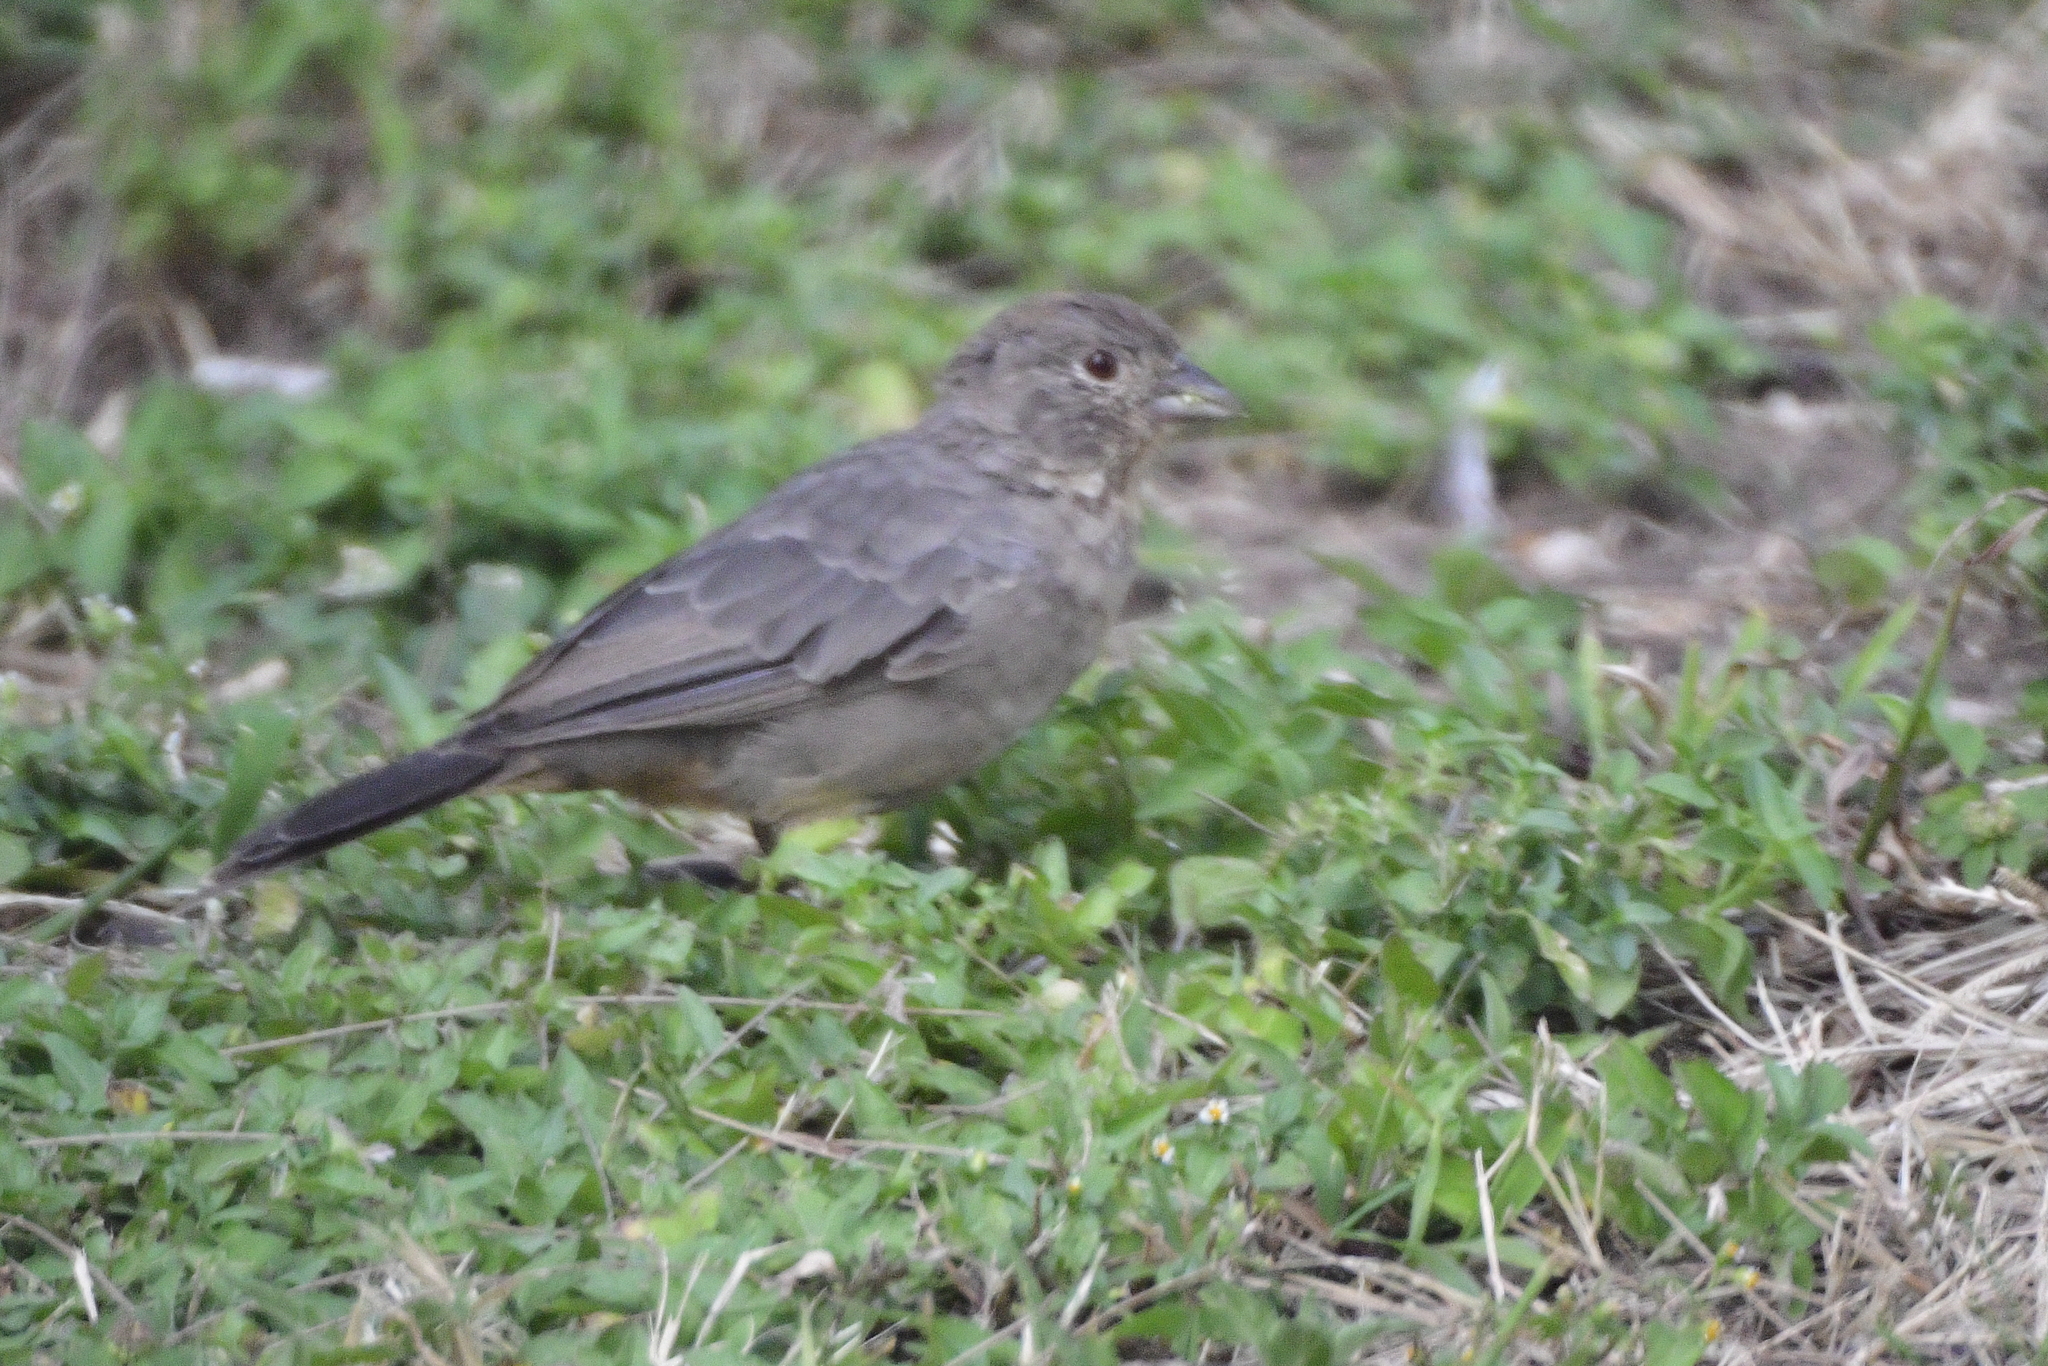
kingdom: Animalia
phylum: Chordata
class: Aves
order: Passeriformes
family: Passerellidae
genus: Melozone
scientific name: Melozone fusca
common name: Canyon towhee
